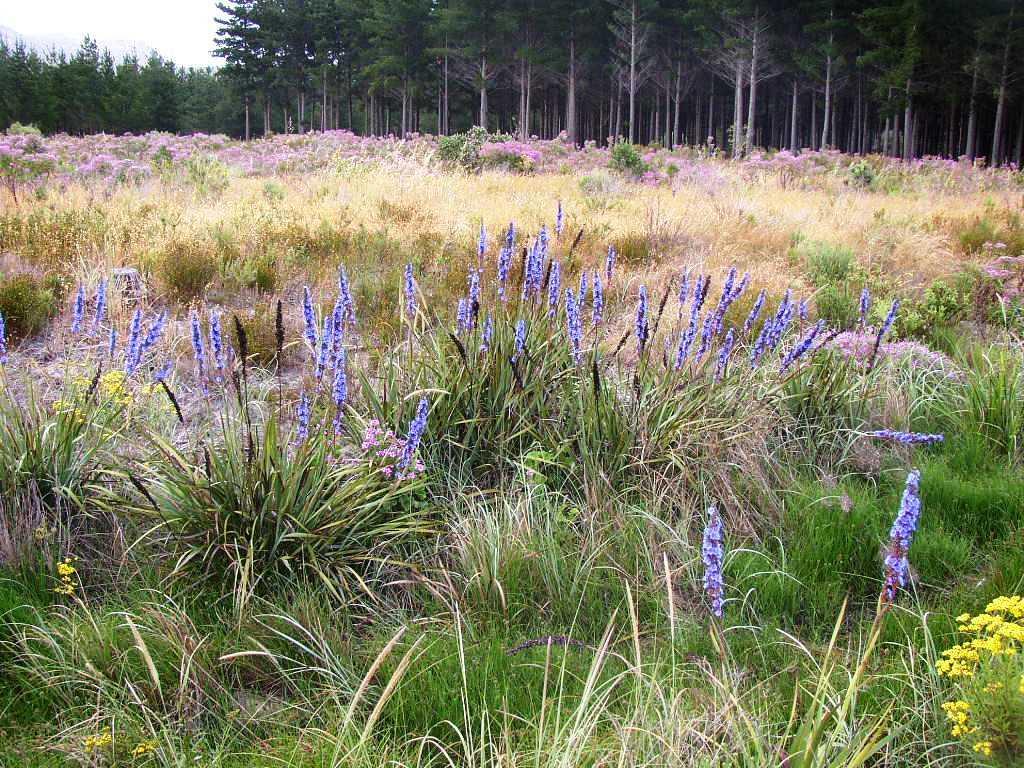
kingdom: Plantae
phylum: Tracheophyta
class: Liliopsida
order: Asparagales
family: Iridaceae
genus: Aristea
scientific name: Aristea capitata
